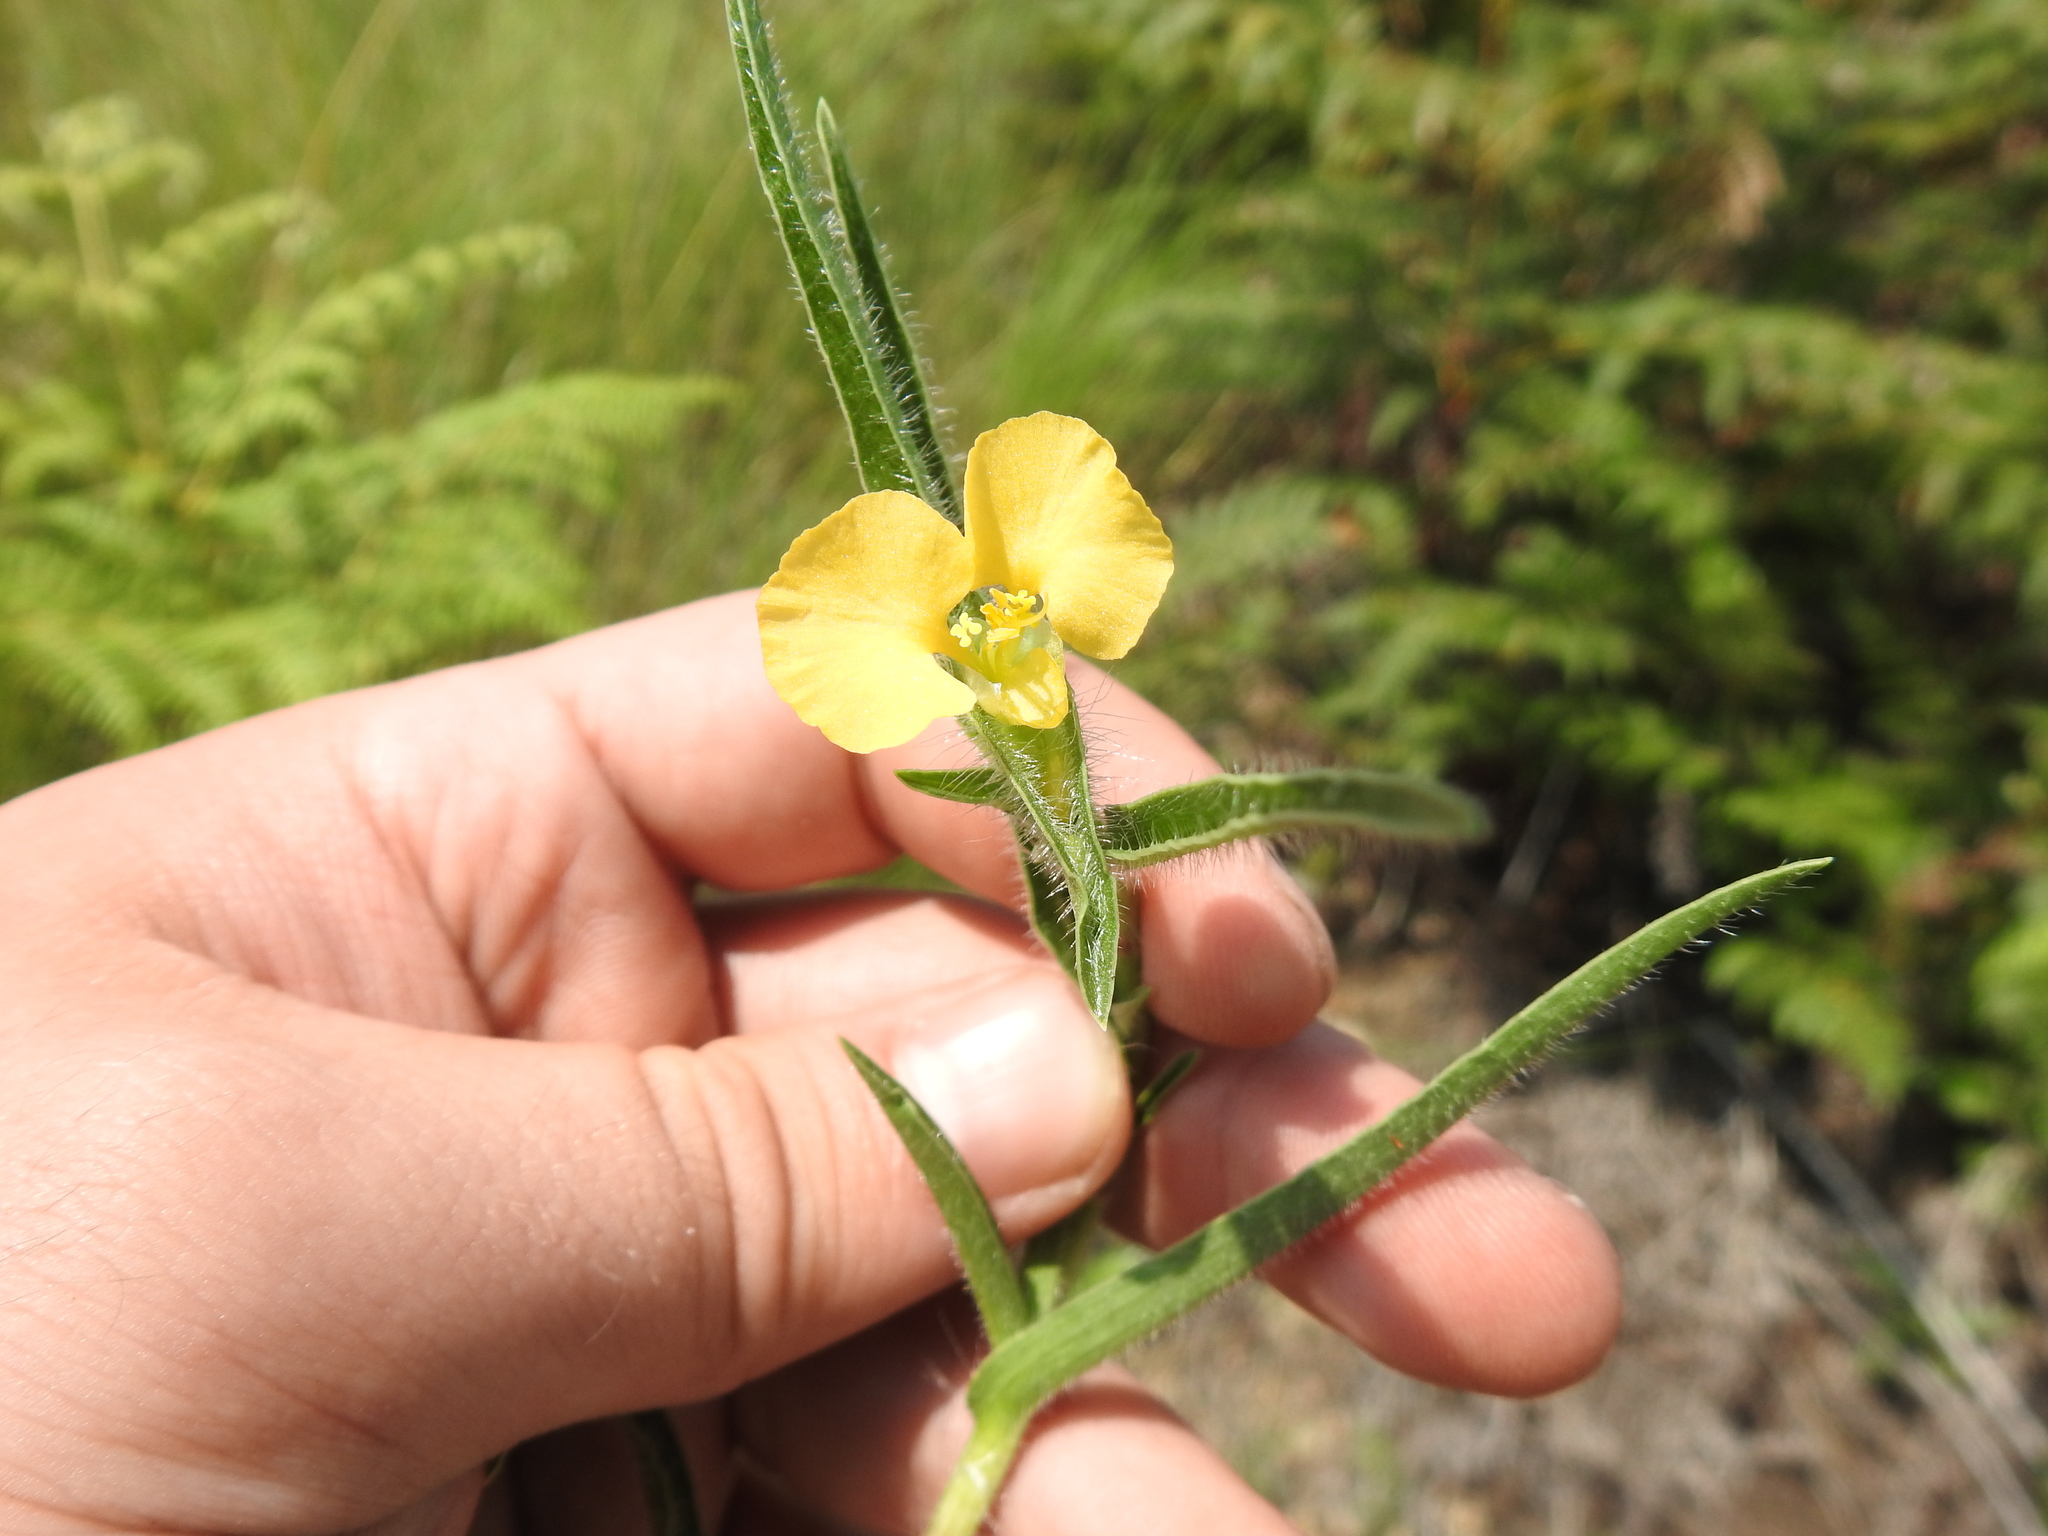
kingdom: Plantae
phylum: Tracheophyta
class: Liliopsida
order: Commelinales
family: Commelinaceae
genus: Commelina
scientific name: Commelina africana
